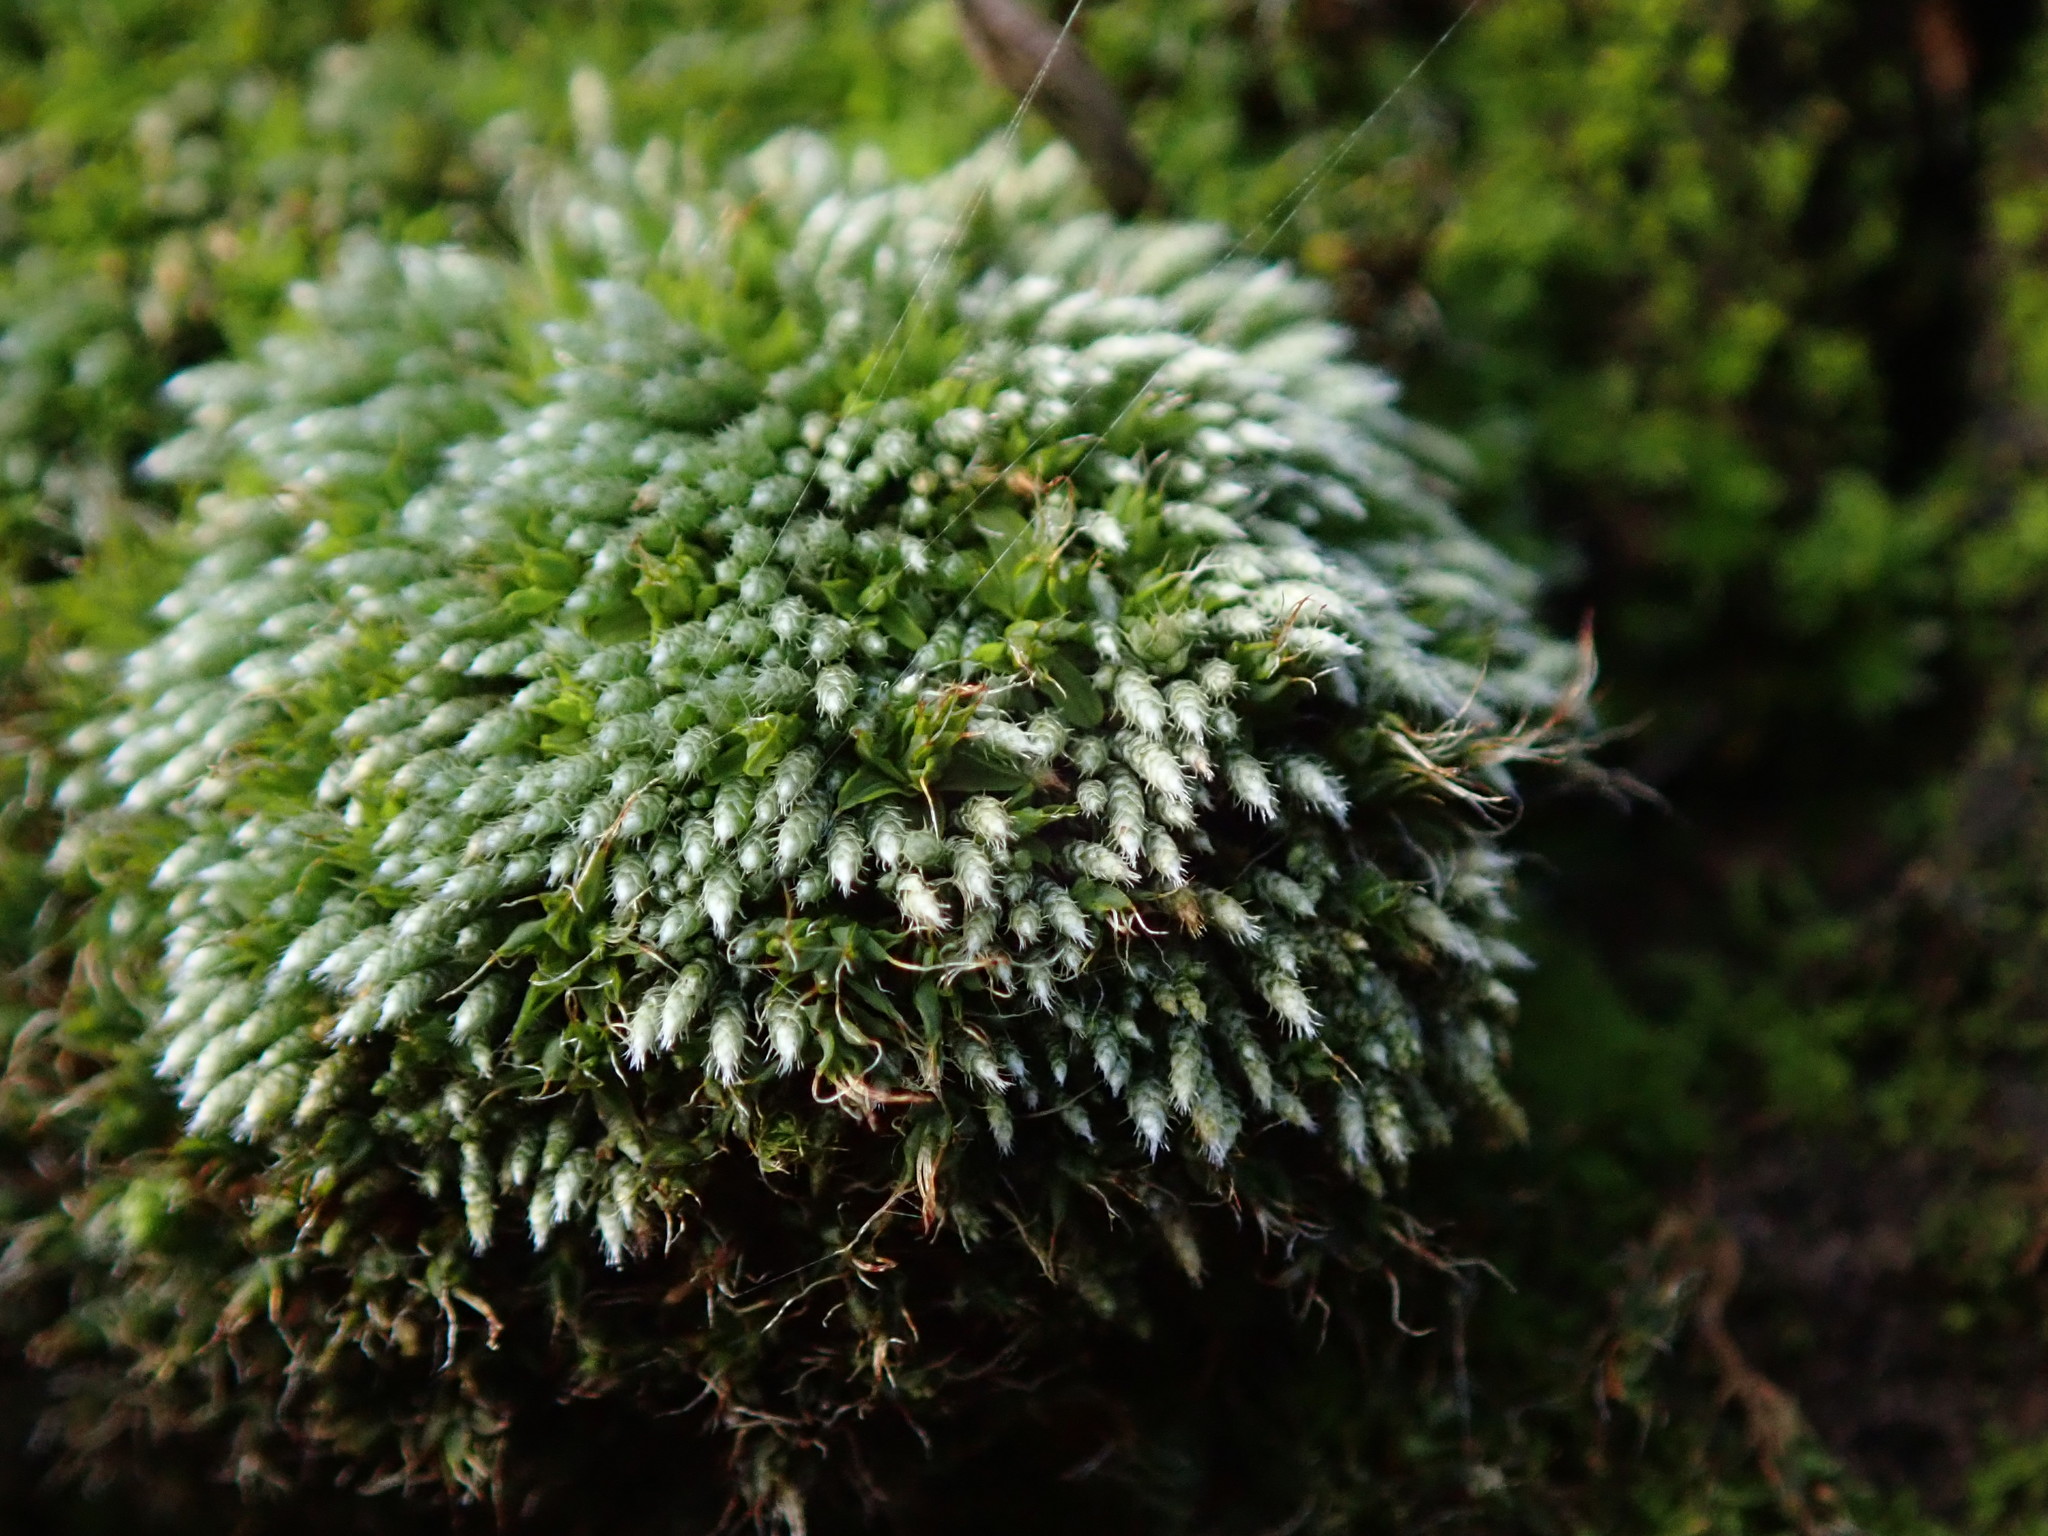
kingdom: Plantae
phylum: Bryophyta
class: Bryopsida
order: Bryales
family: Bryaceae
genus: Bryum
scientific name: Bryum argenteum
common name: Silver-moss
